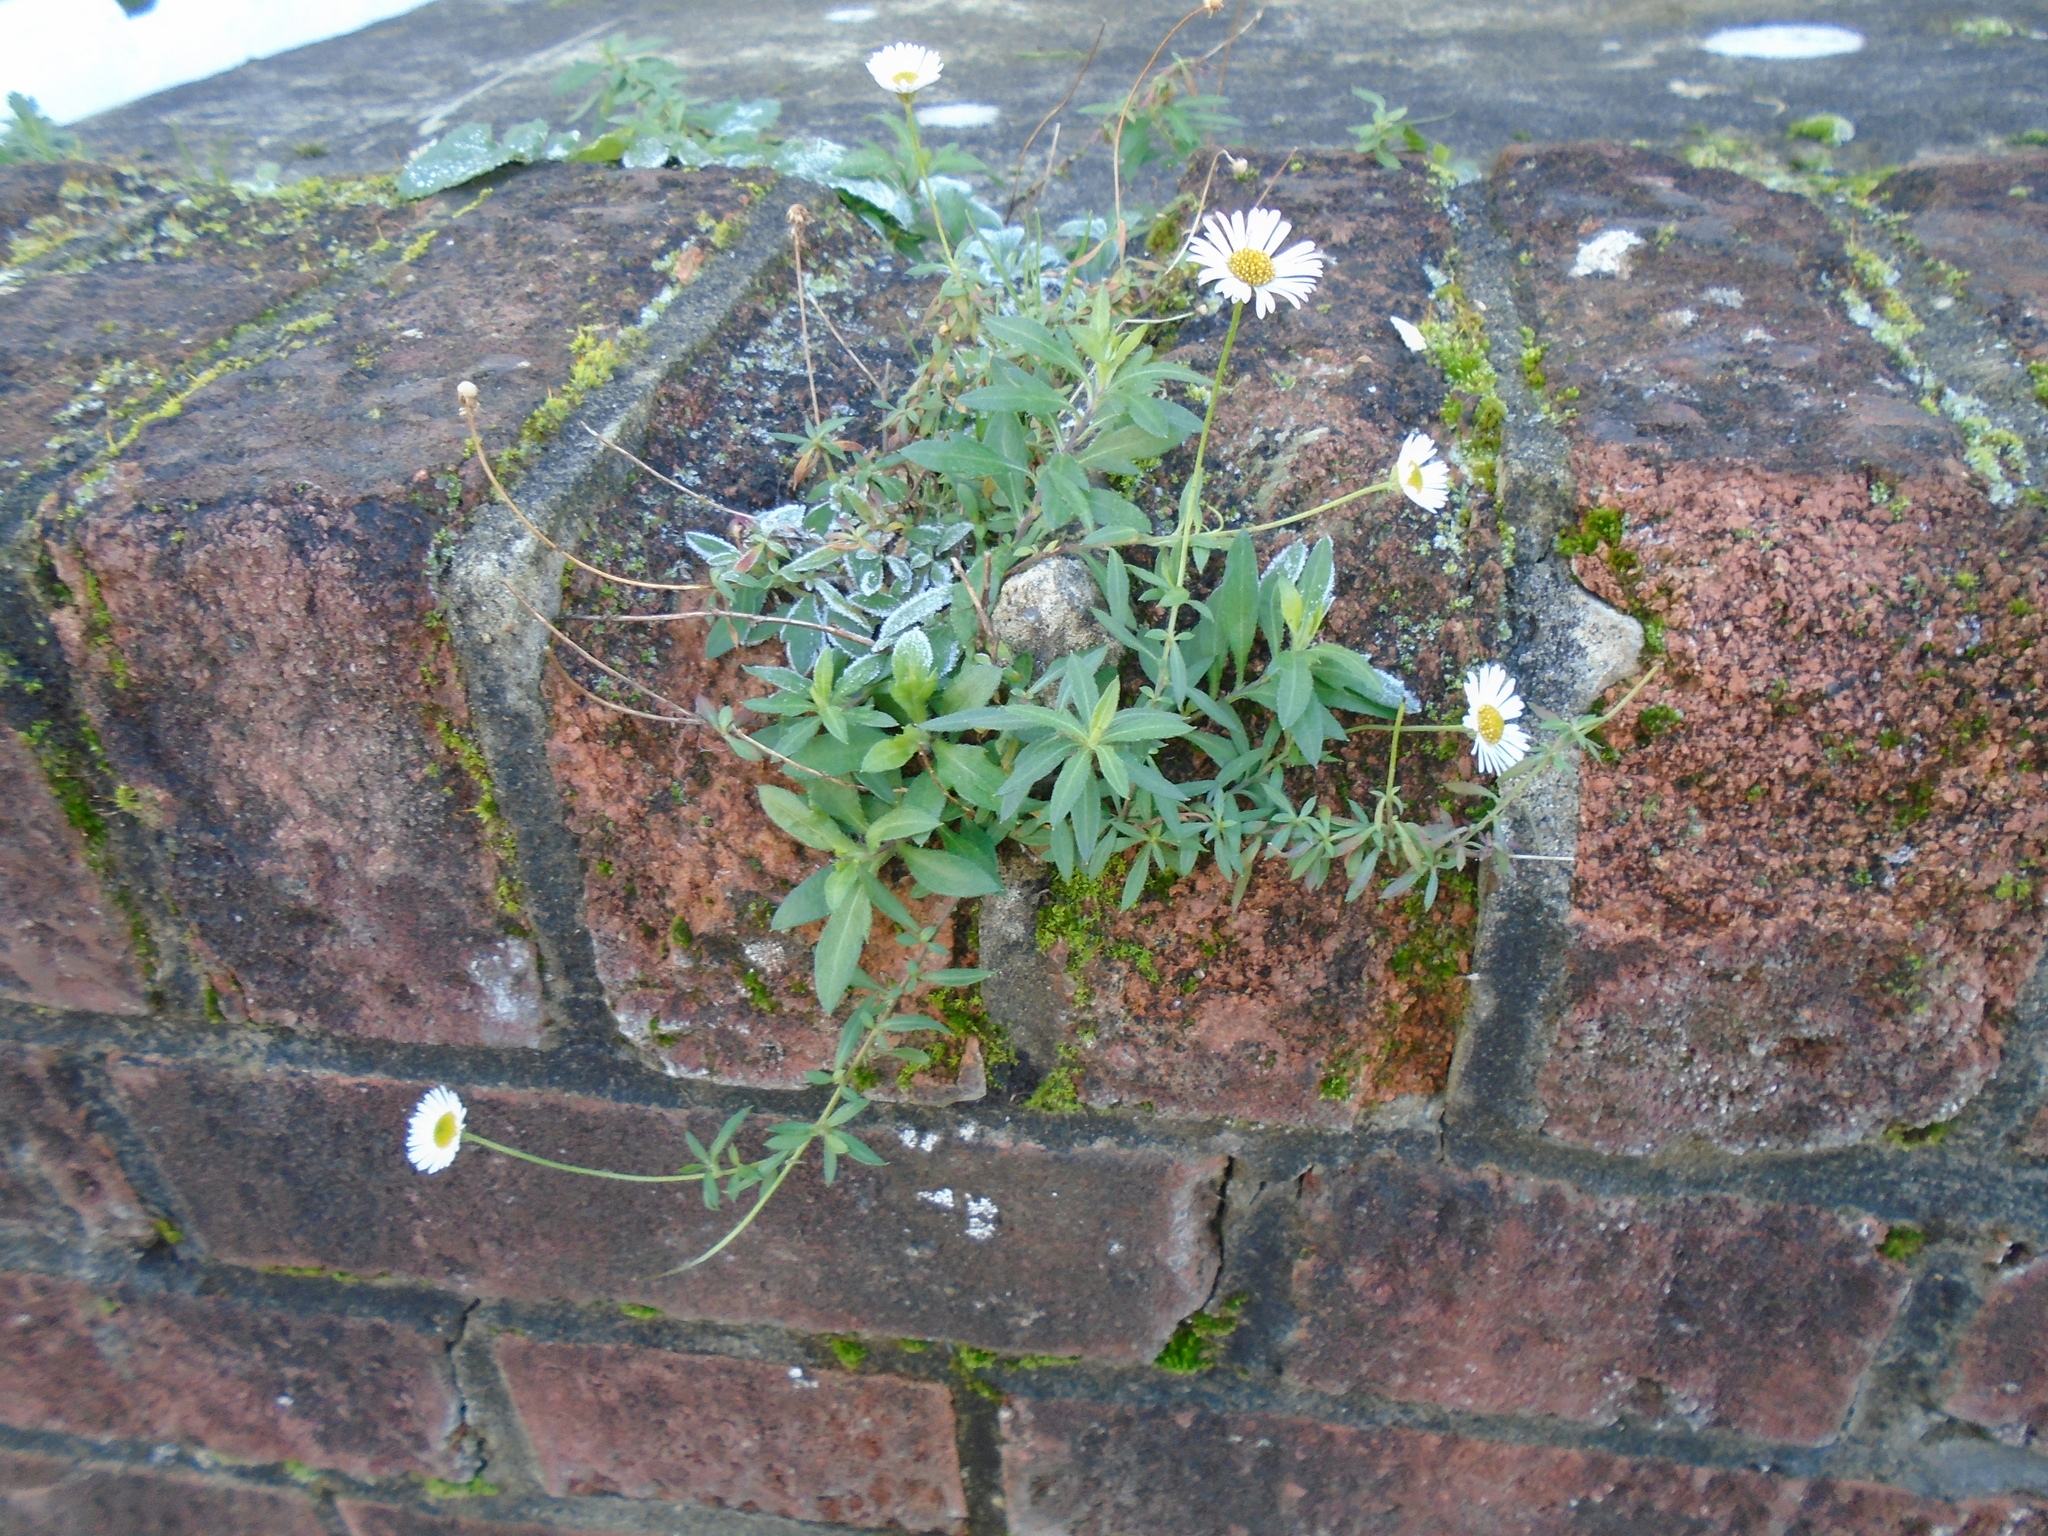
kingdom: Plantae
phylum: Tracheophyta
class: Magnoliopsida
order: Asterales
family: Asteraceae
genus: Erigeron
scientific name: Erigeron karvinskianus
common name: Mexican fleabane
